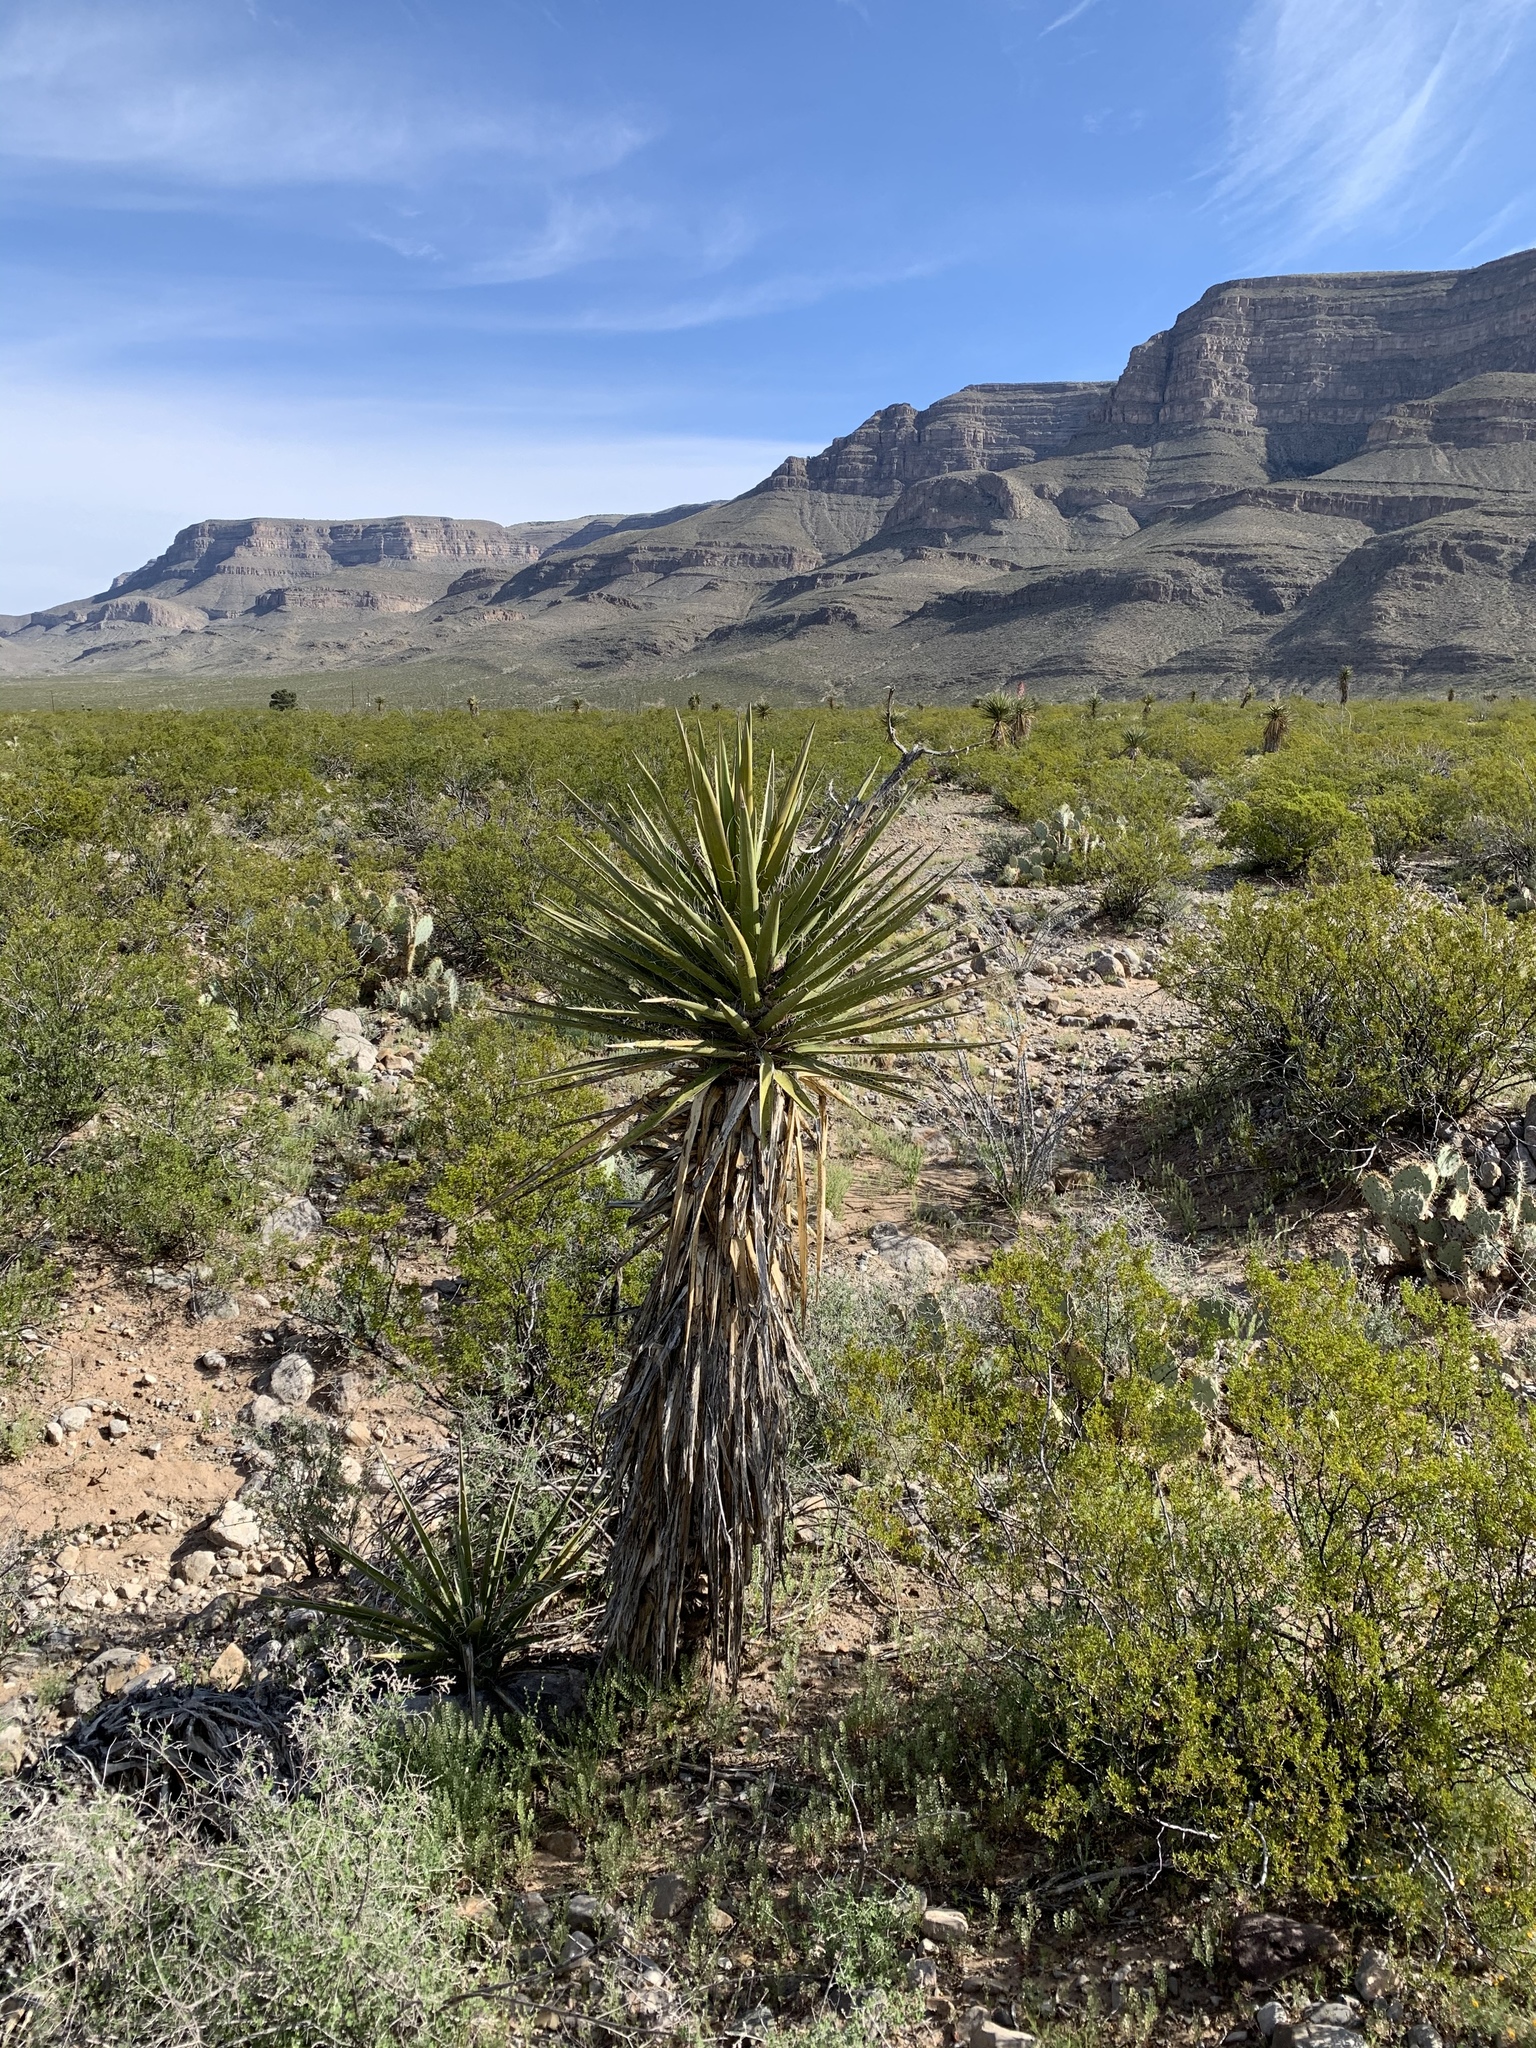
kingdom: Plantae
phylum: Tracheophyta
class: Liliopsida
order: Asparagales
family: Asparagaceae
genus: Yucca
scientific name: Yucca treculiana
